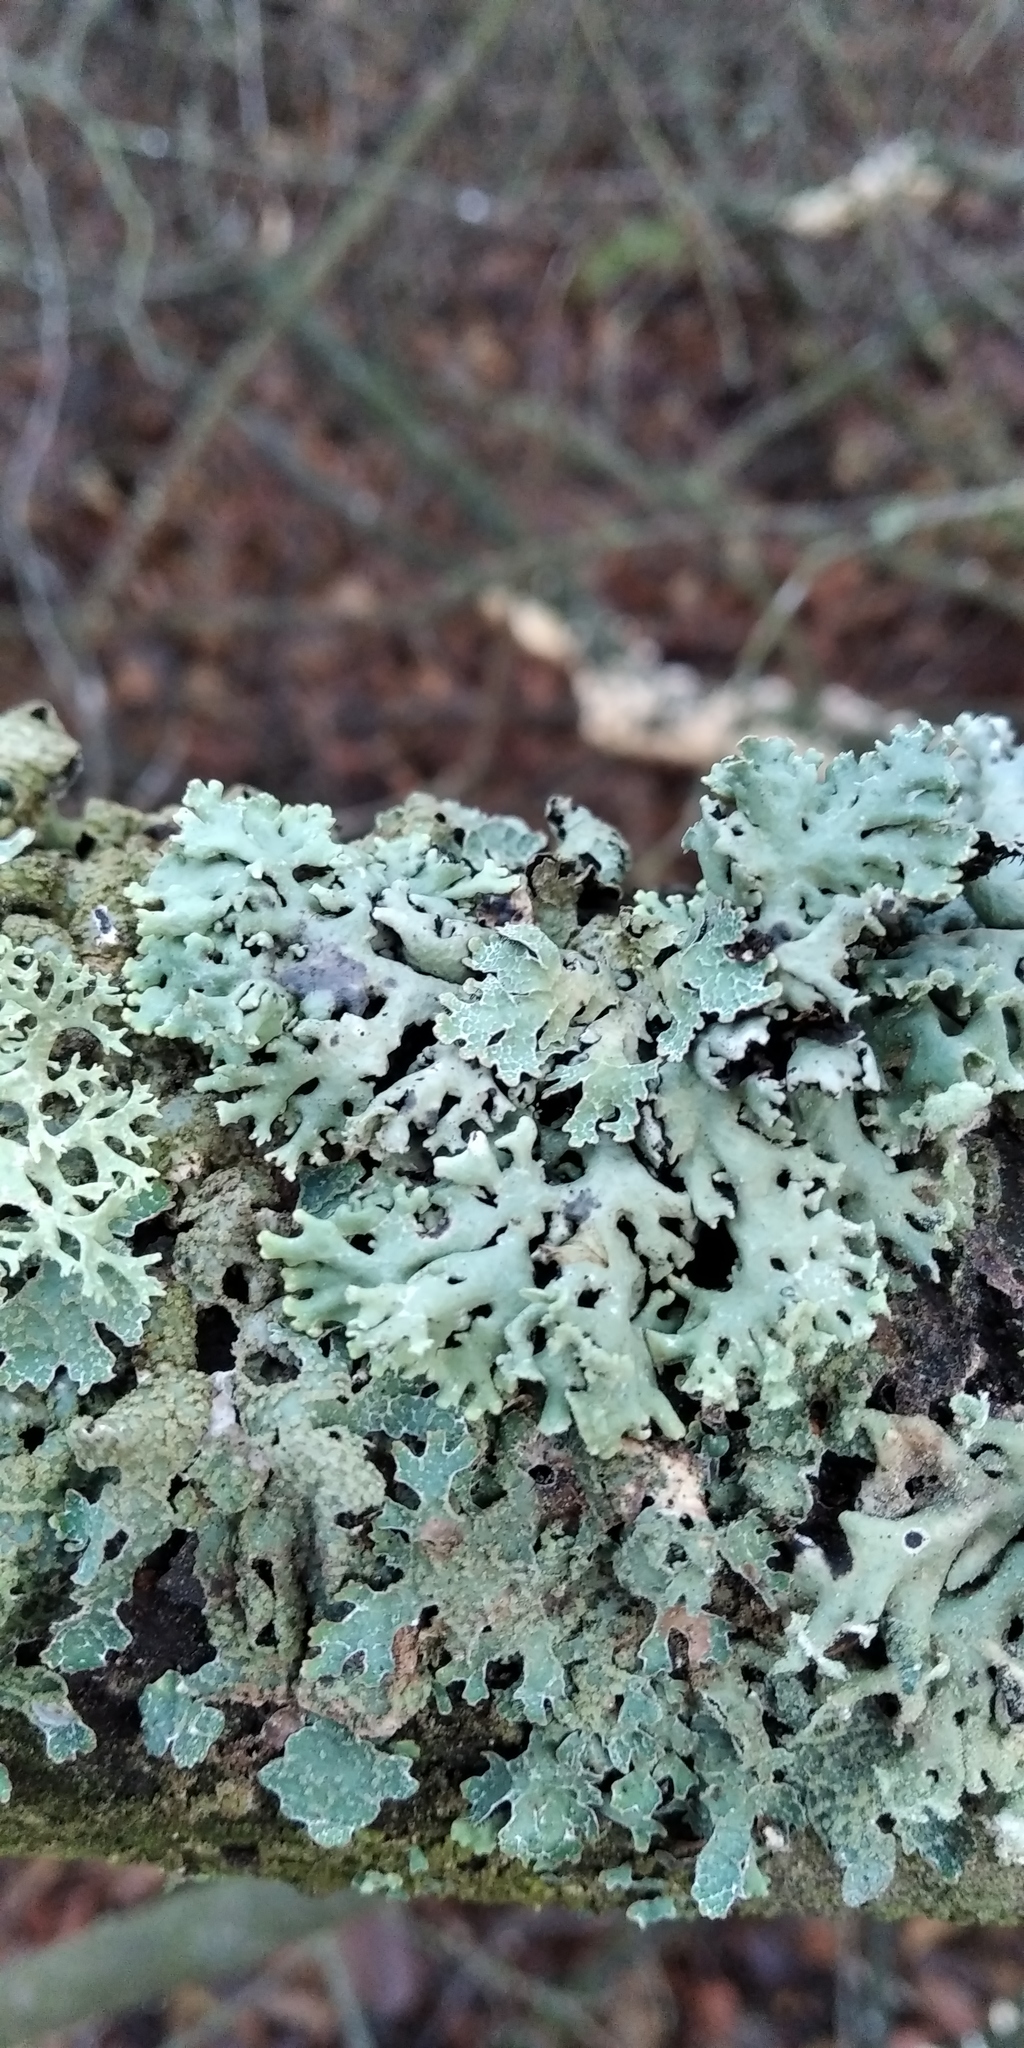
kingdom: Fungi
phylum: Ascomycota
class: Lecanoromycetes
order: Lecanorales
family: Parmeliaceae
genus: Hypogymnia
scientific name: Hypogymnia physodes
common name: Dark crottle
